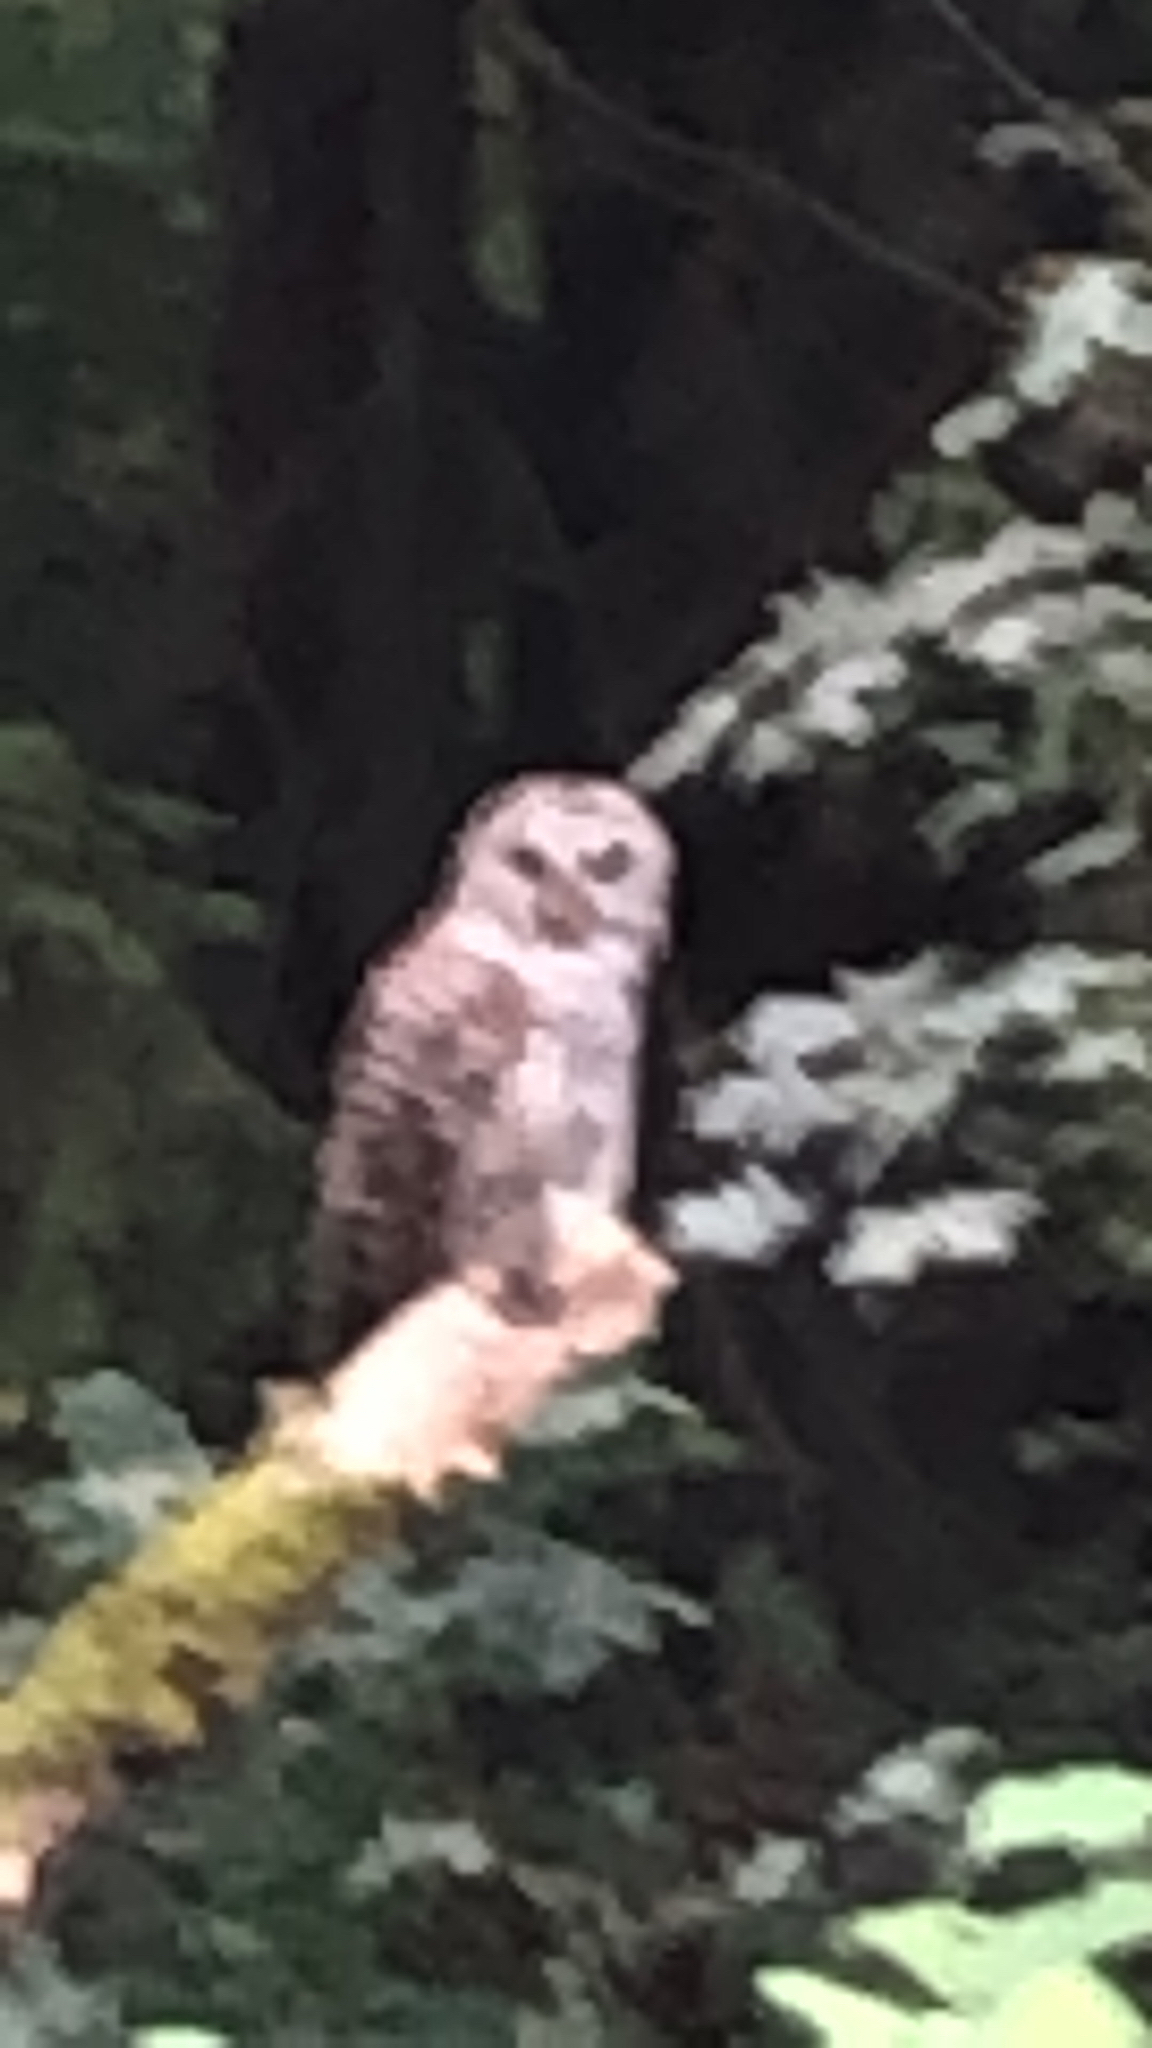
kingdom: Animalia
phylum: Chordata
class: Aves
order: Strigiformes
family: Strigidae
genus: Strix
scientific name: Strix varia
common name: Barred owl
